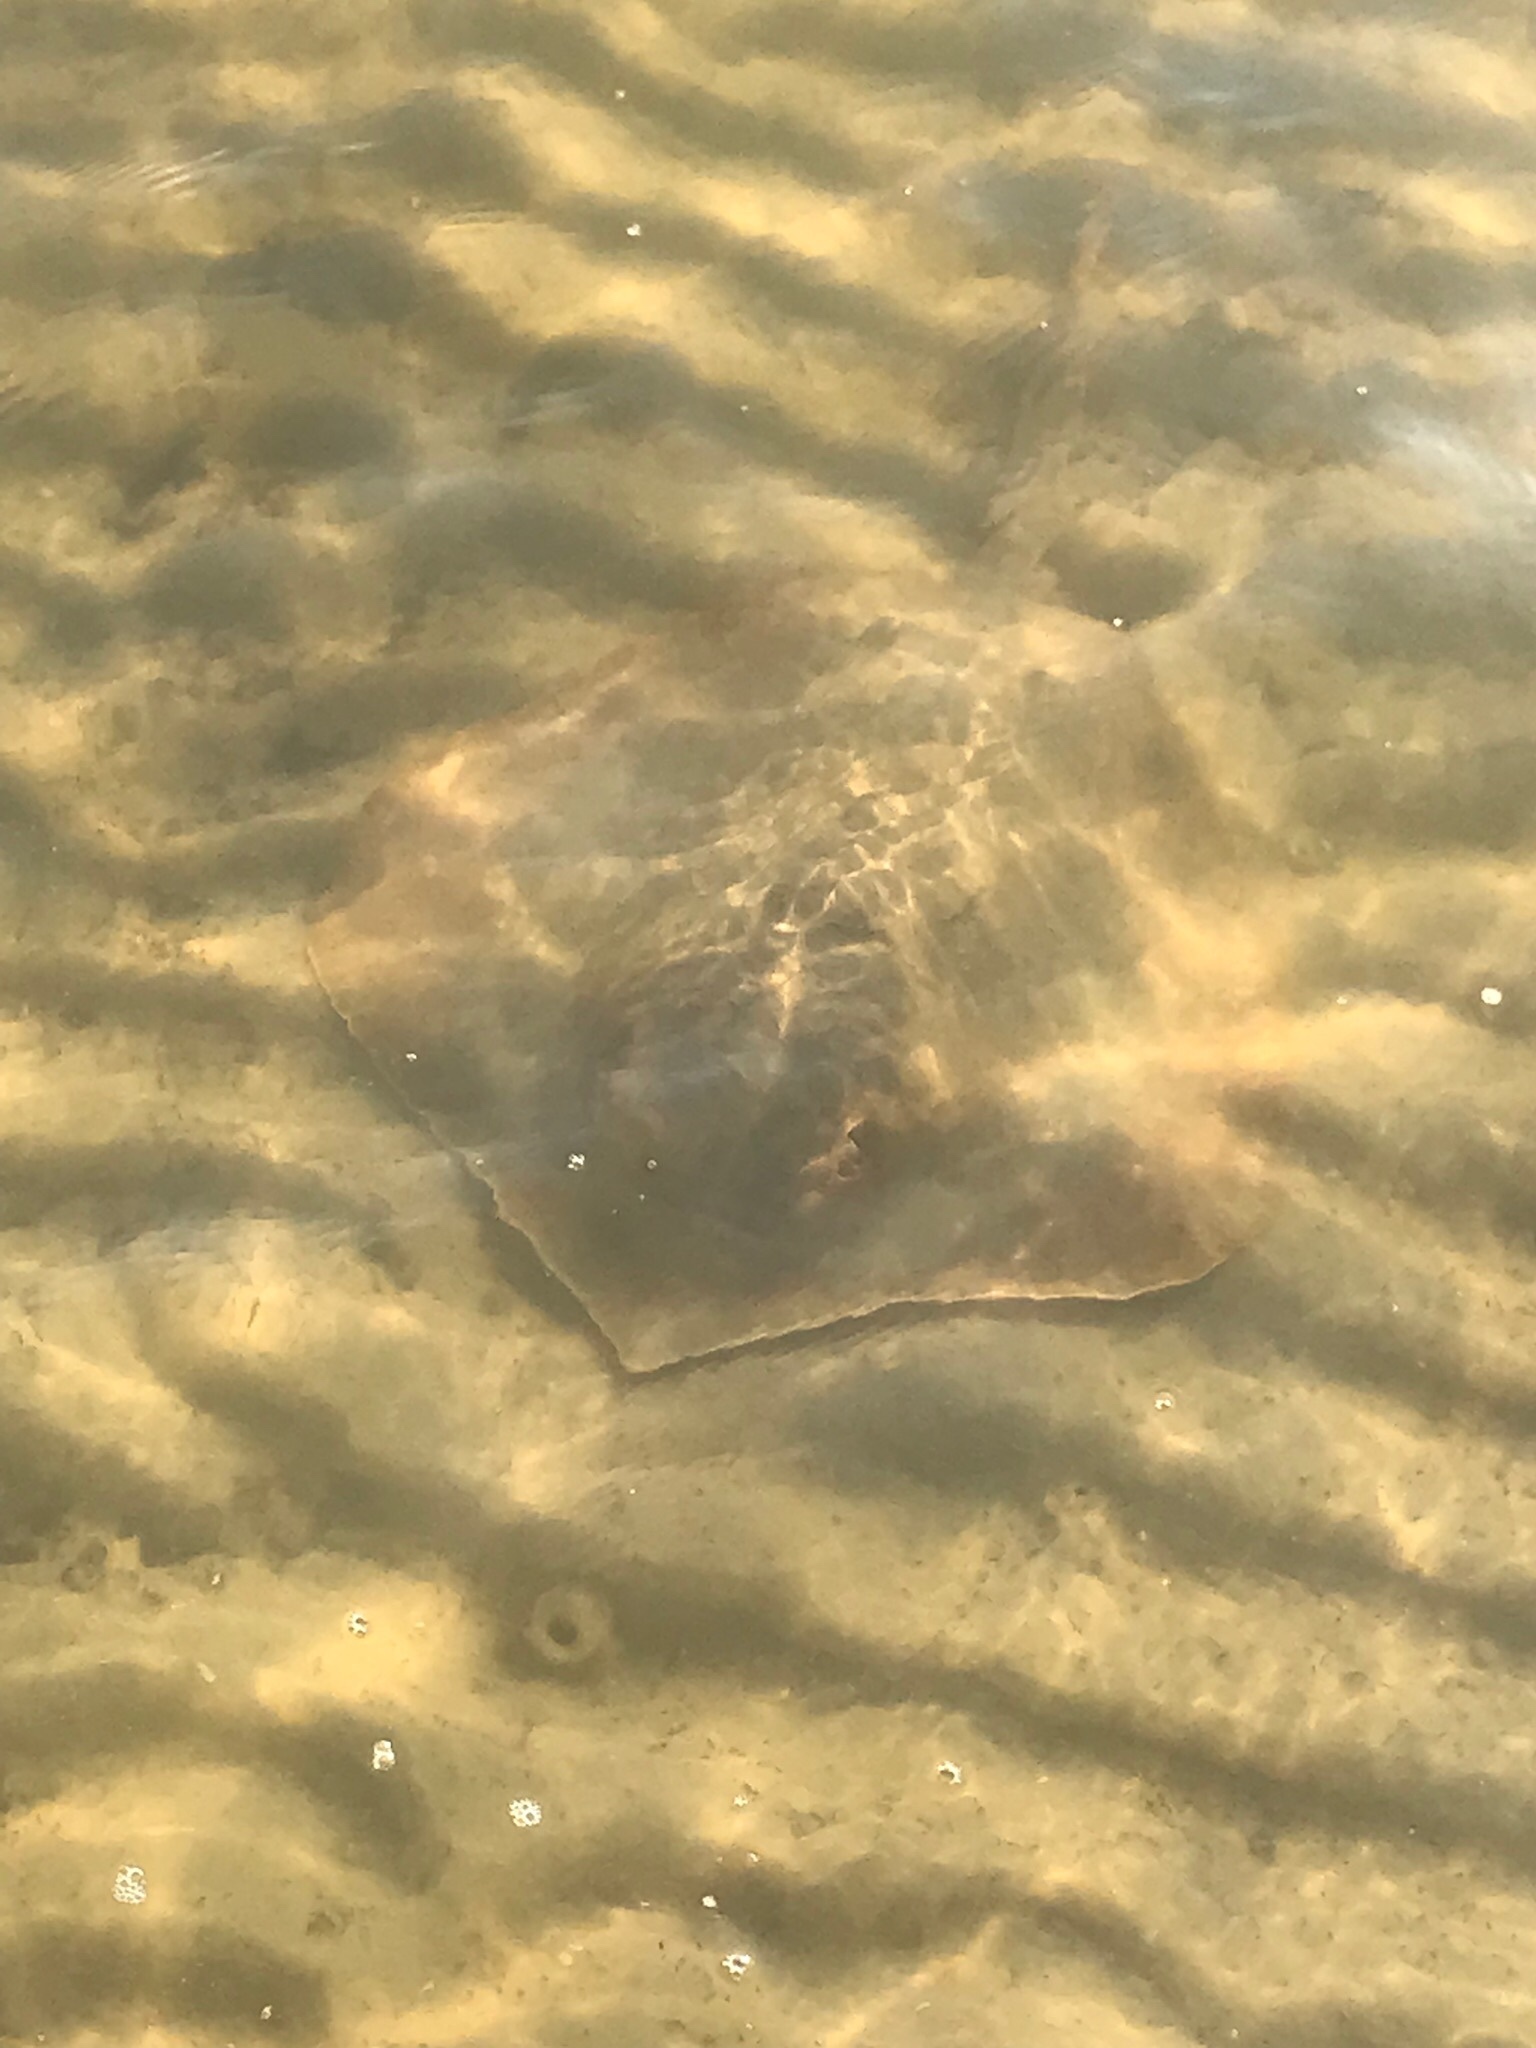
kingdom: Animalia
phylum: Chordata
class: Elasmobranchii
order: Myliobatiformes
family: Dasyatidae
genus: Hypanus
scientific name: Hypanus sabinus
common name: Atlantic stingray
